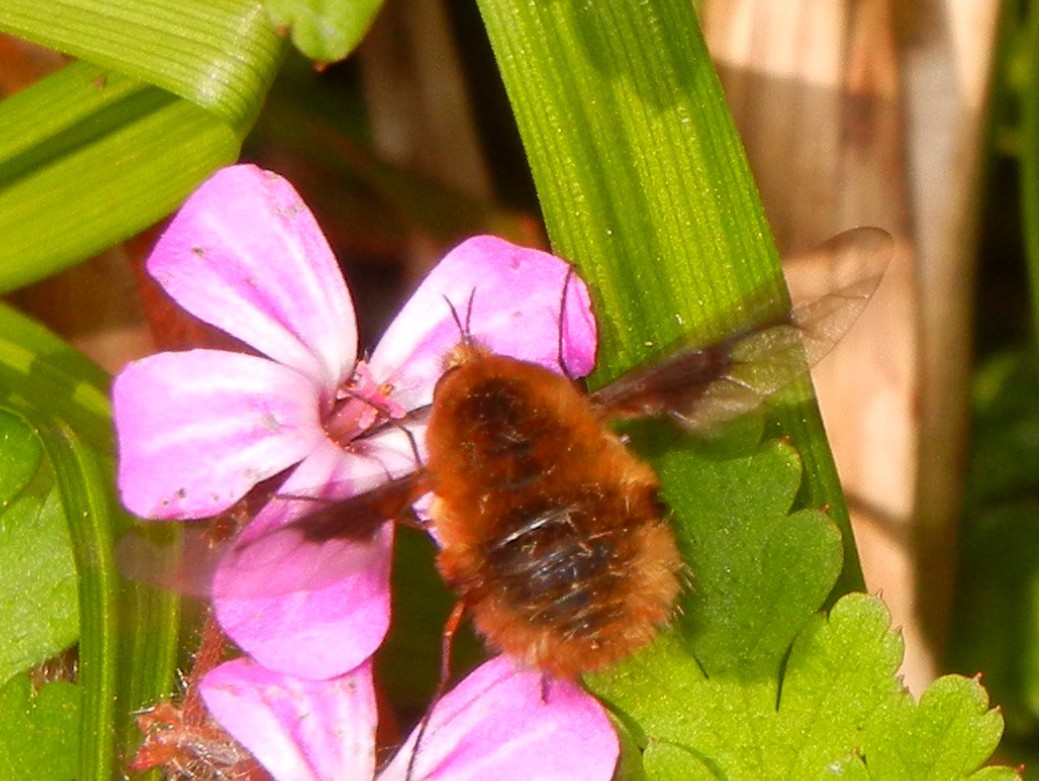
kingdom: Animalia
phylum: Arthropoda
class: Insecta
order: Diptera
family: Bombyliidae
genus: Bombylius
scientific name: Bombylius major
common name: Bee fly
